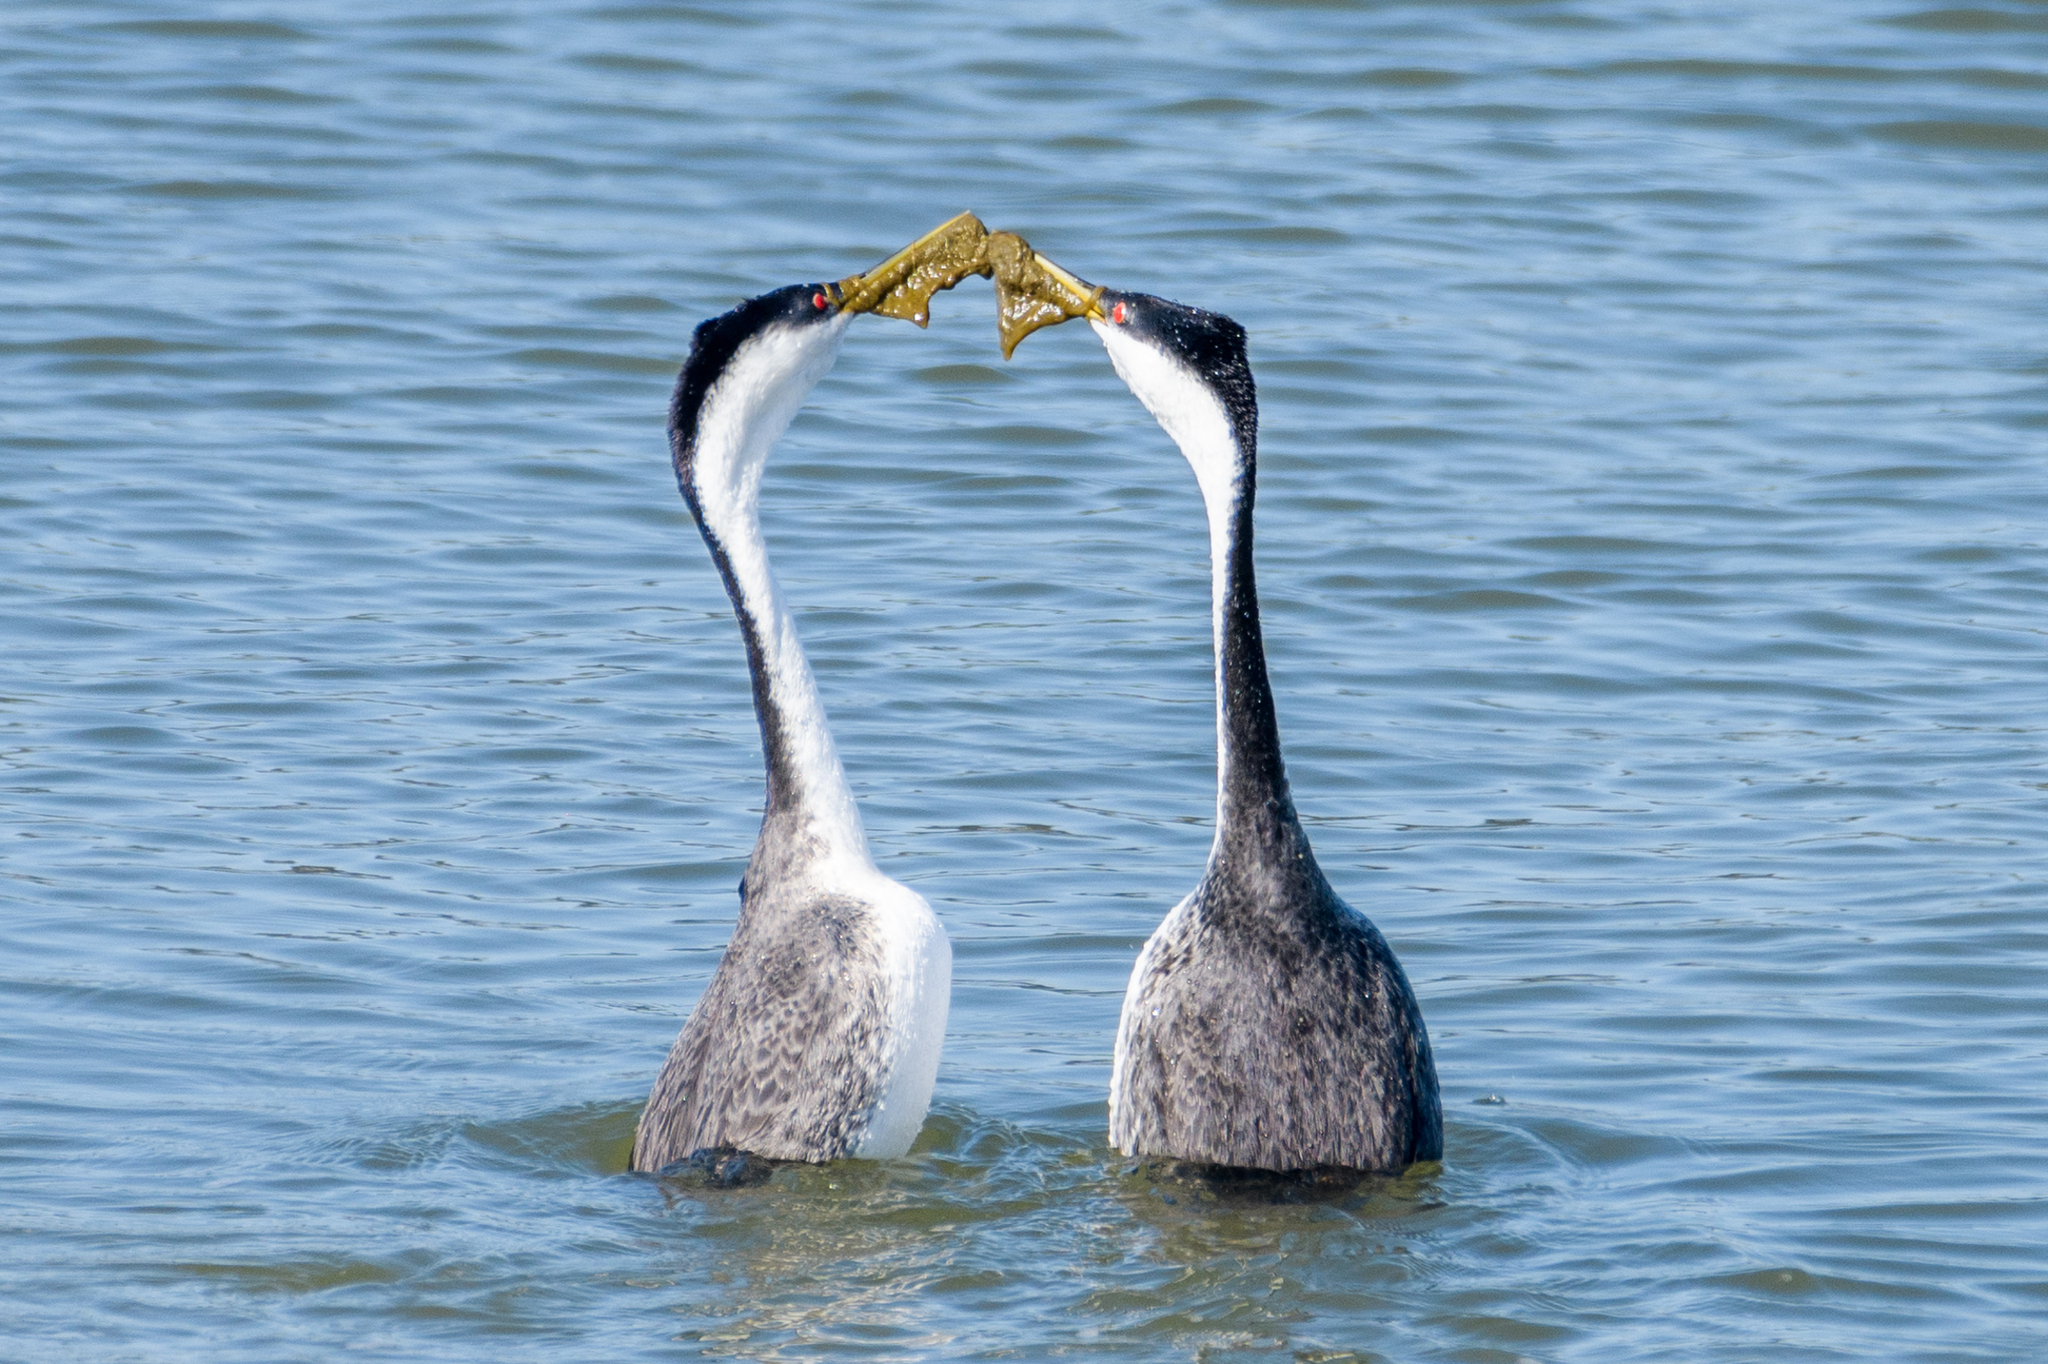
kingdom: Animalia
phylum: Chordata
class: Aves
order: Podicipediformes
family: Podicipedidae
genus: Aechmophorus
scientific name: Aechmophorus occidentalis
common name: Western grebe
